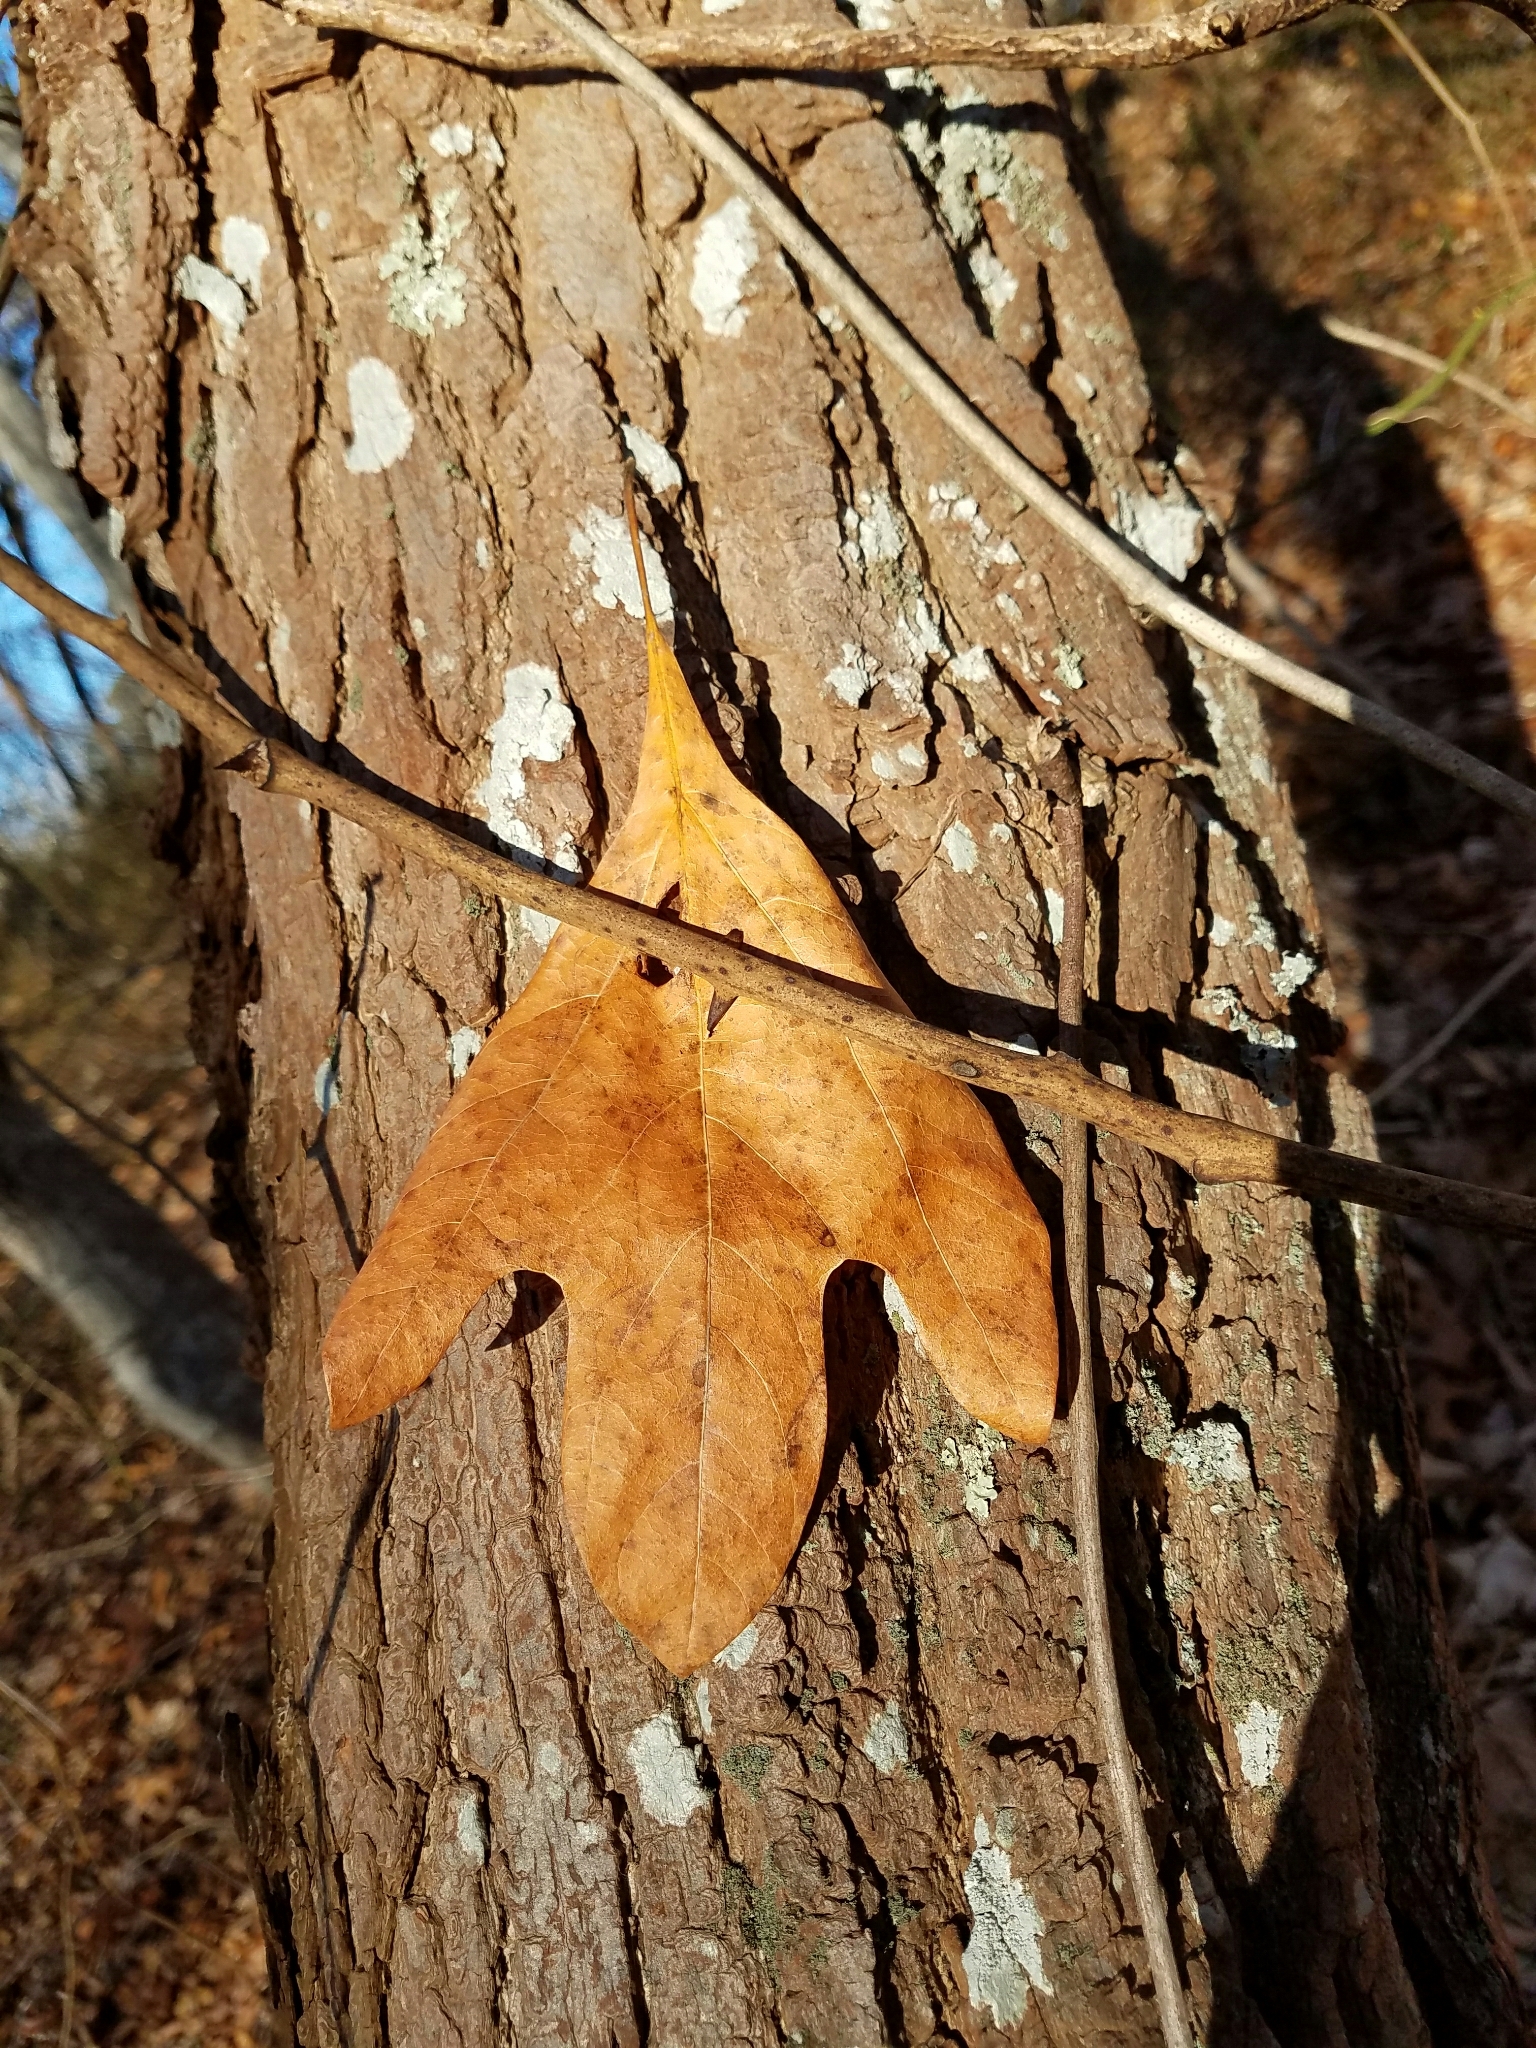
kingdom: Plantae
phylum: Tracheophyta
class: Magnoliopsida
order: Laurales
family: Lauraceae
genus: Sassafras
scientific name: Sassafras albidum
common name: Sassafras
